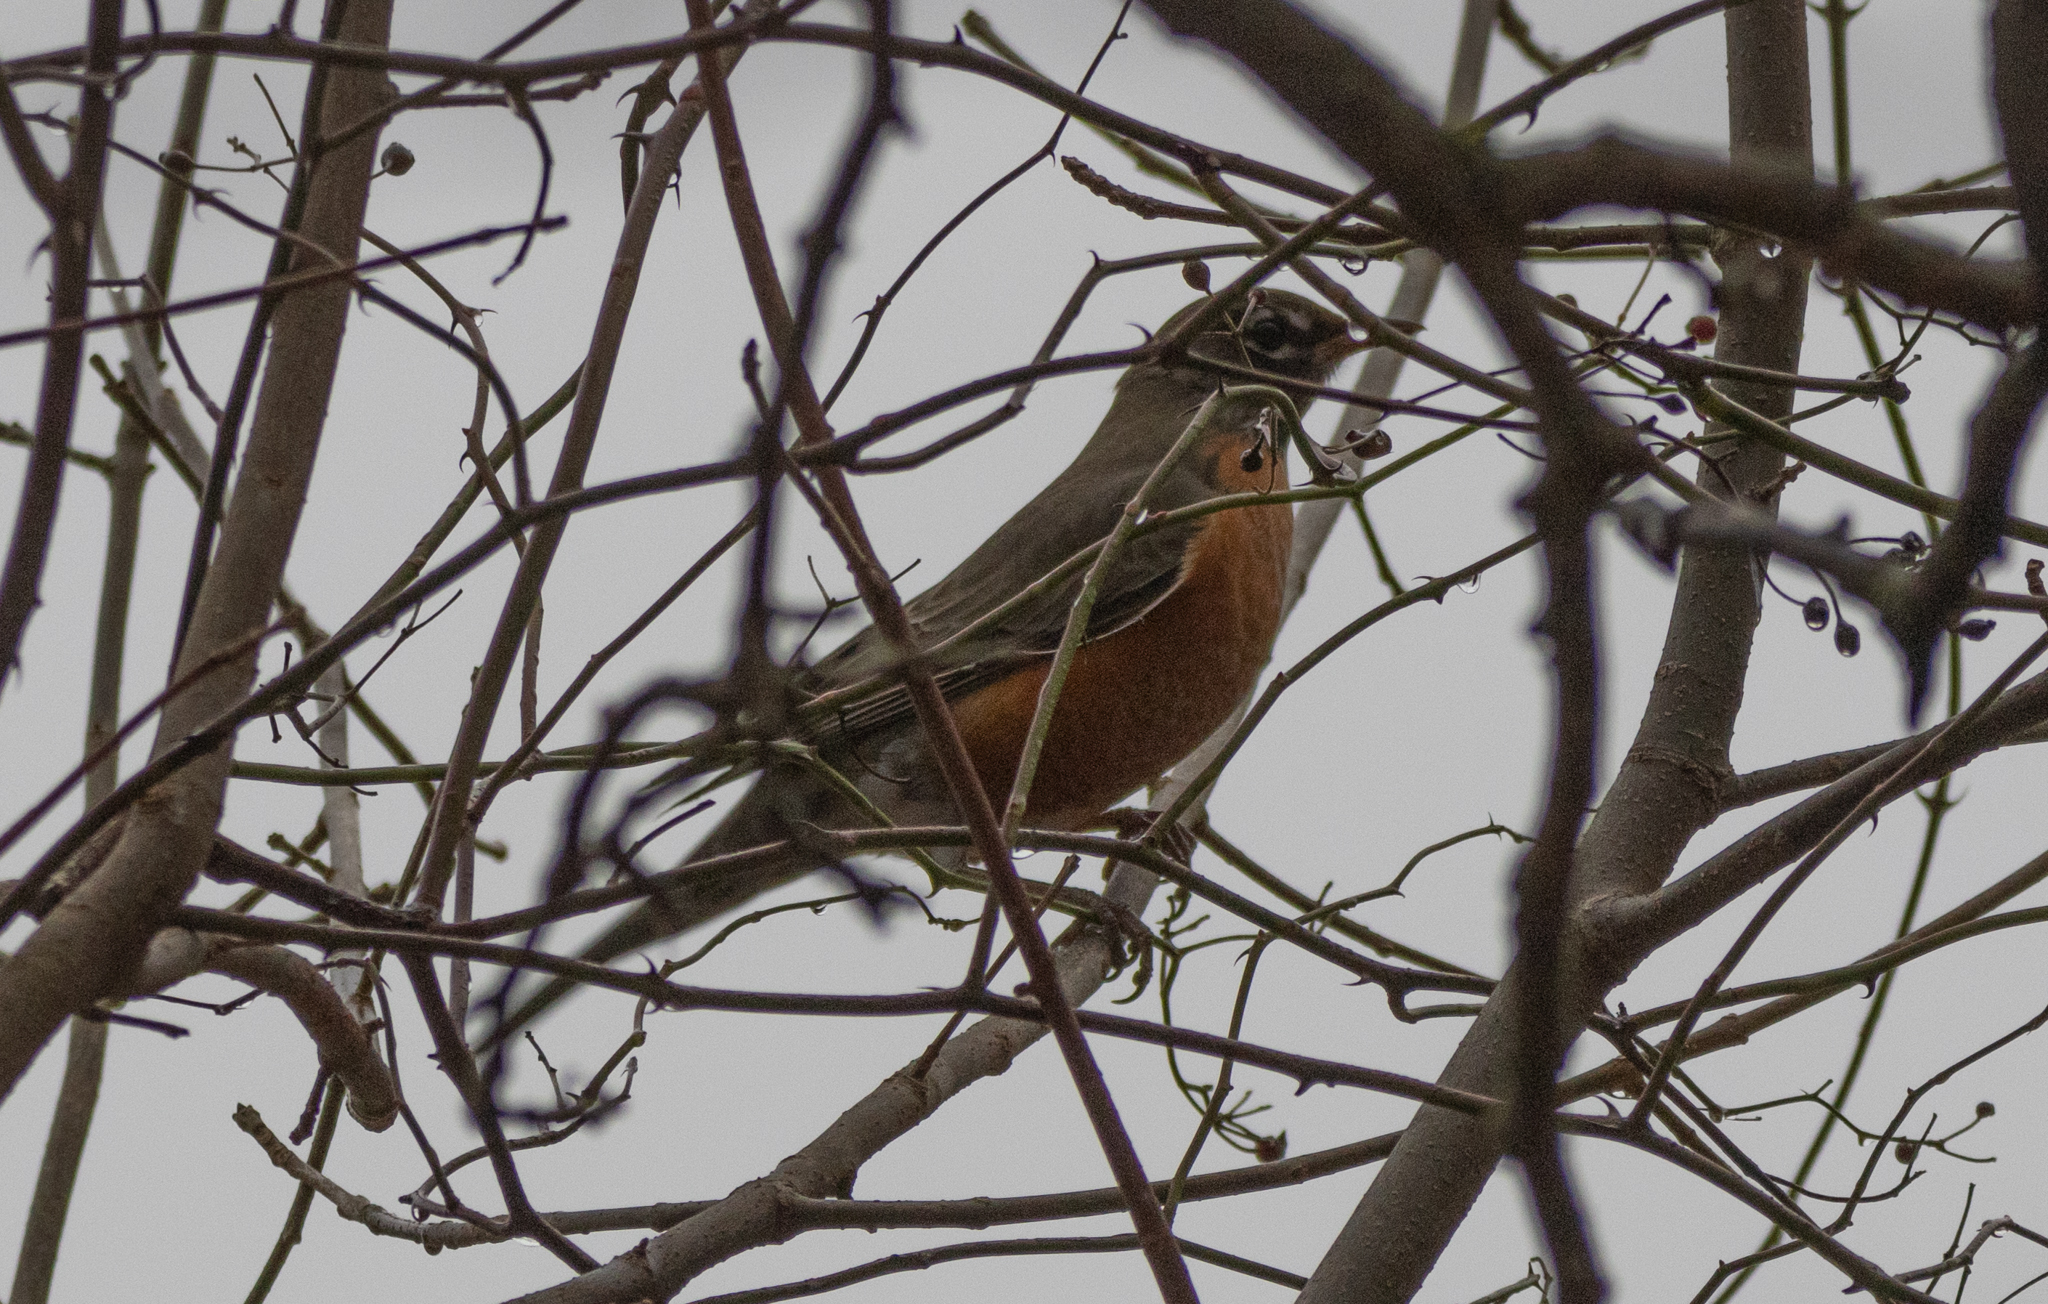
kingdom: Animalia
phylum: Chordata
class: Aves
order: Passeriformes
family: Turdidae
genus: Turdus
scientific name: Turdus migratorius
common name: American robin
